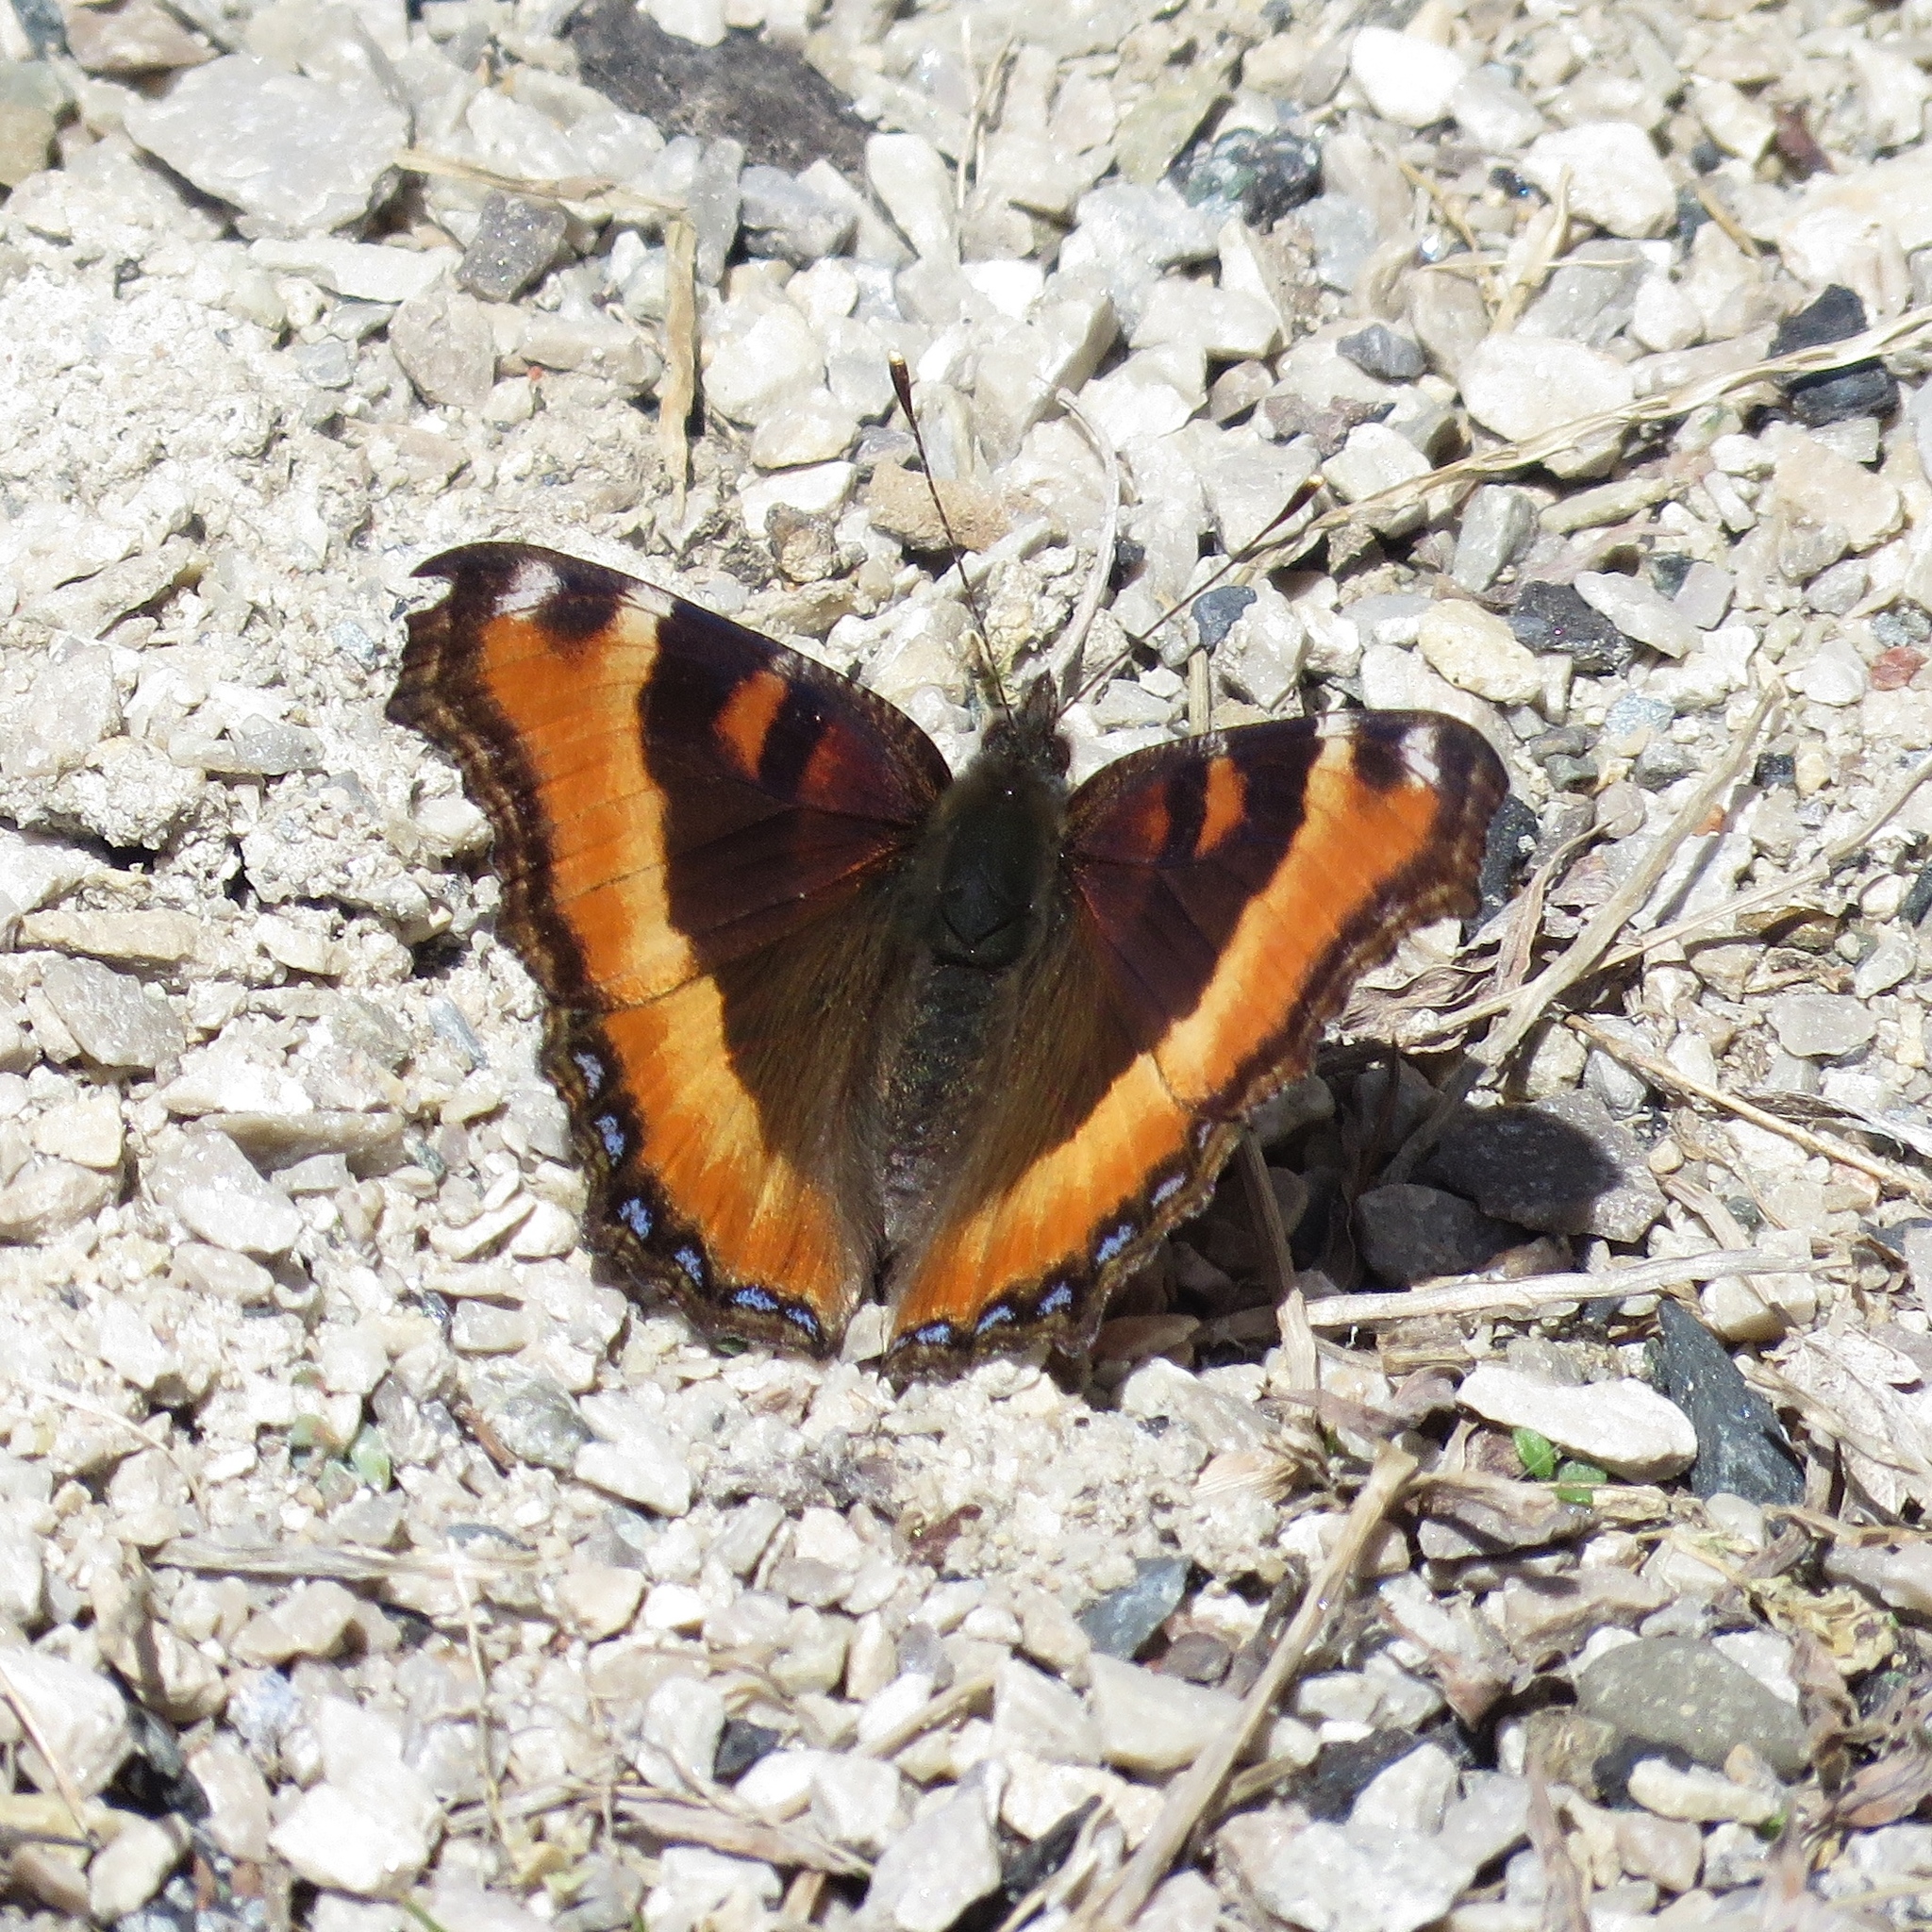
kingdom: Animalia
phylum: Arthropoda
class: Insecta
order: Lepidoptera
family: Nymphalidae
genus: Aglais
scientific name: Aglais milberti
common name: Milbert's tortoiseshell
